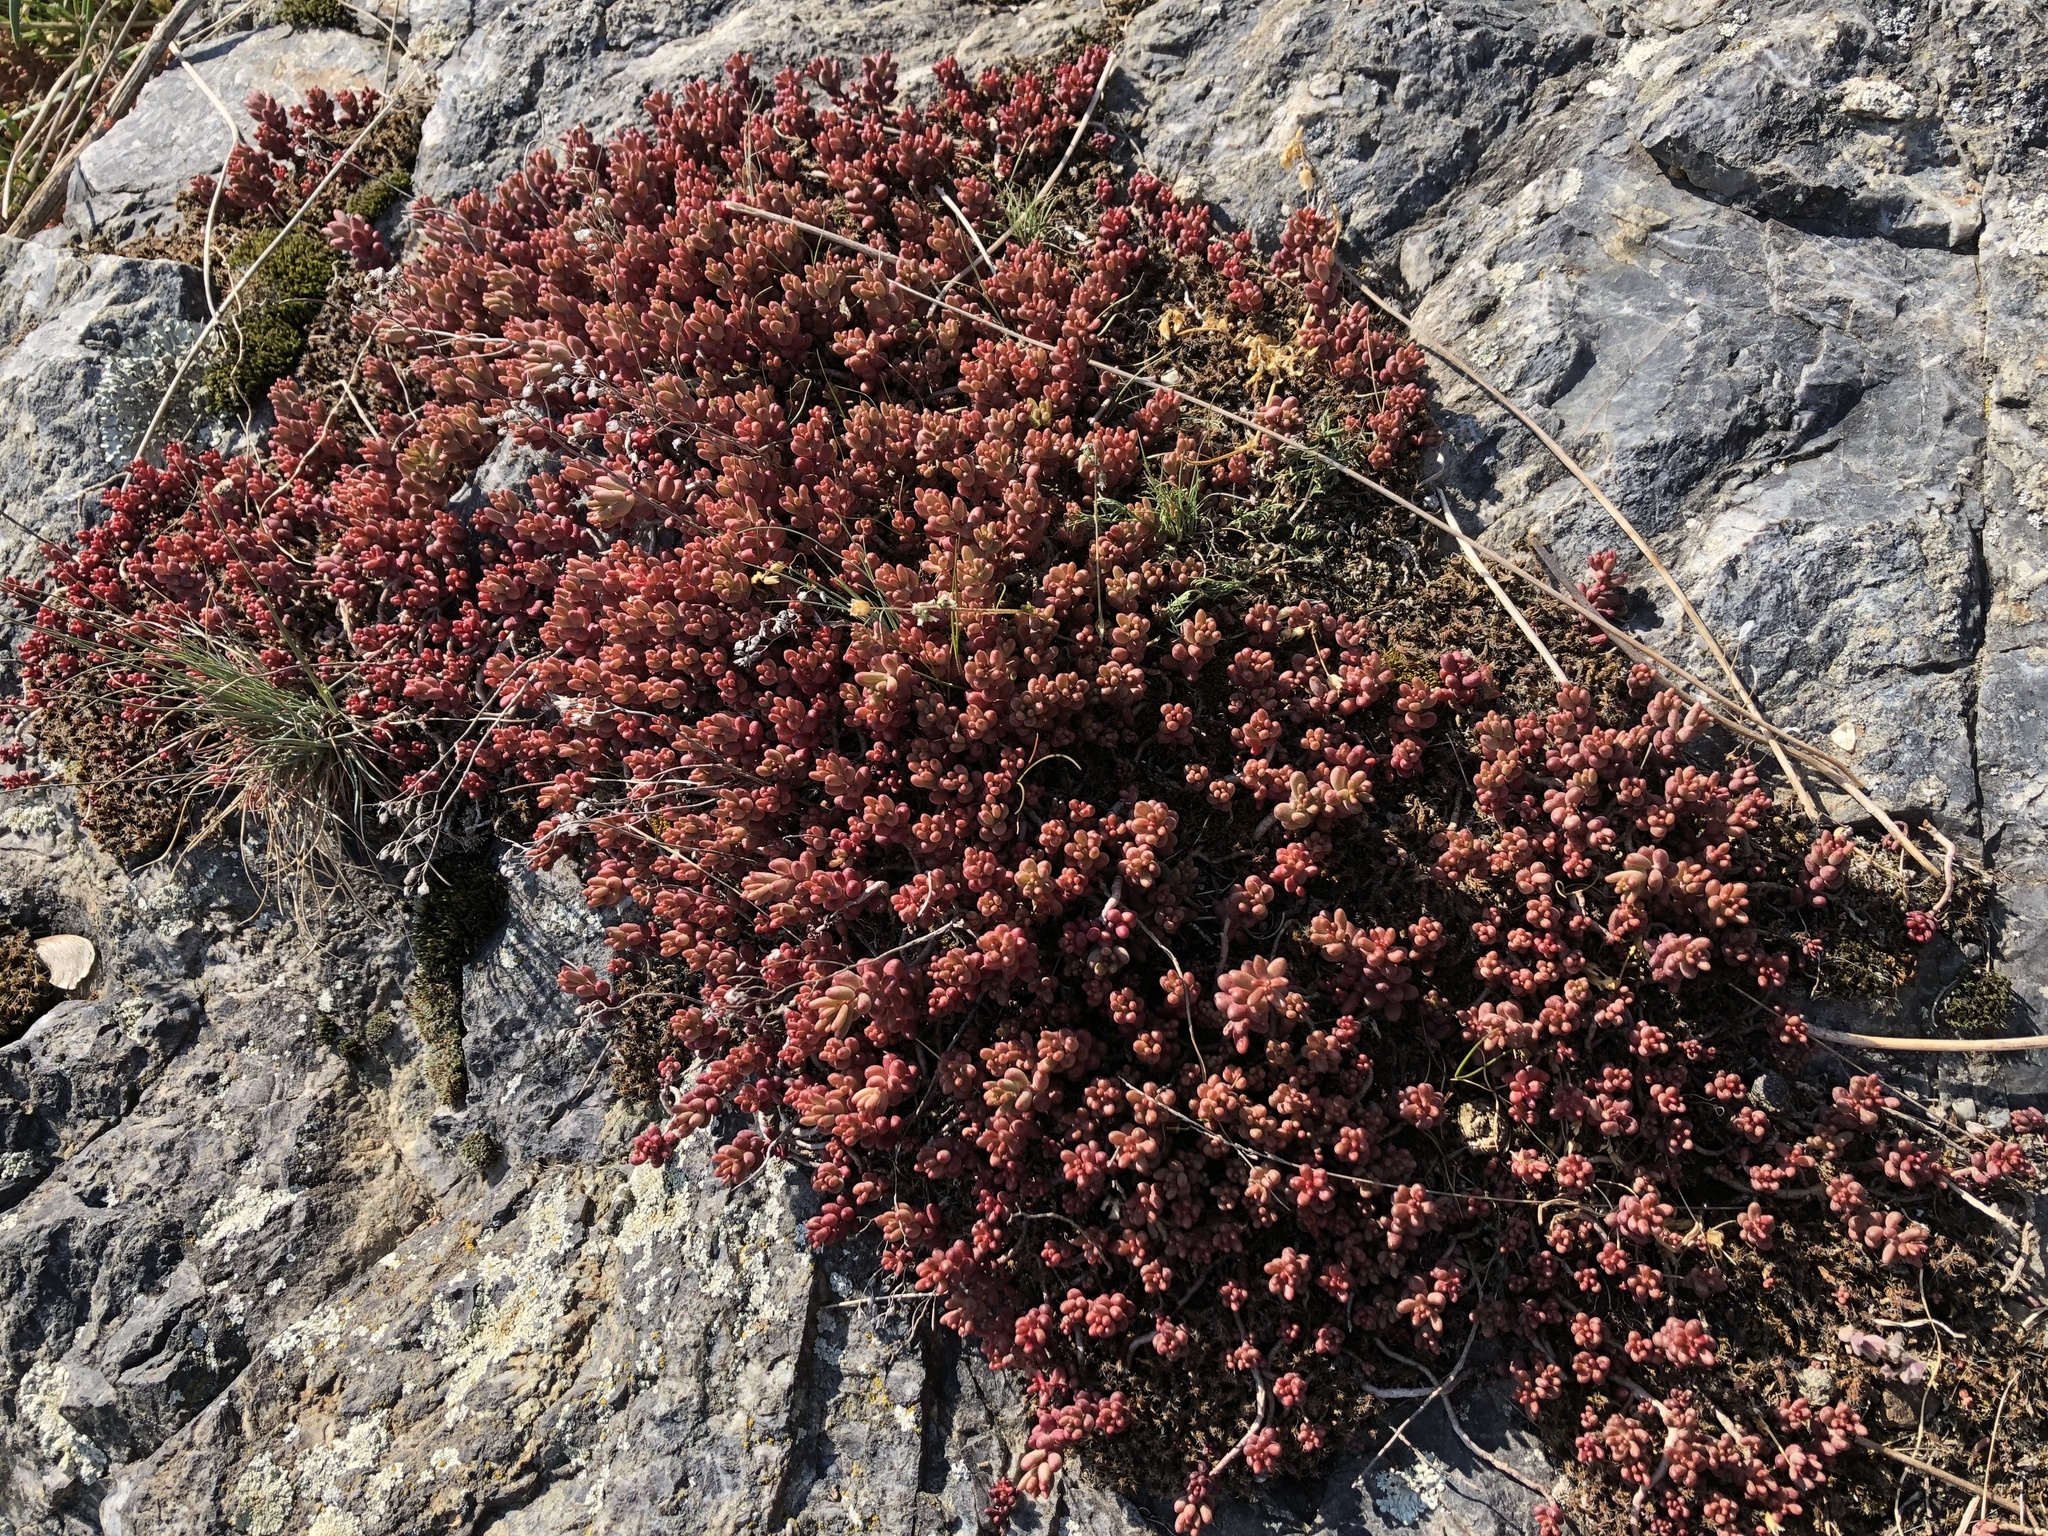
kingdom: Plantae
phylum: Tracheophyta
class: Magnoliopsida
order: Saxifragales
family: Crassulaceae
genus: Sedum
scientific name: Sedum album
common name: White stonecrop
